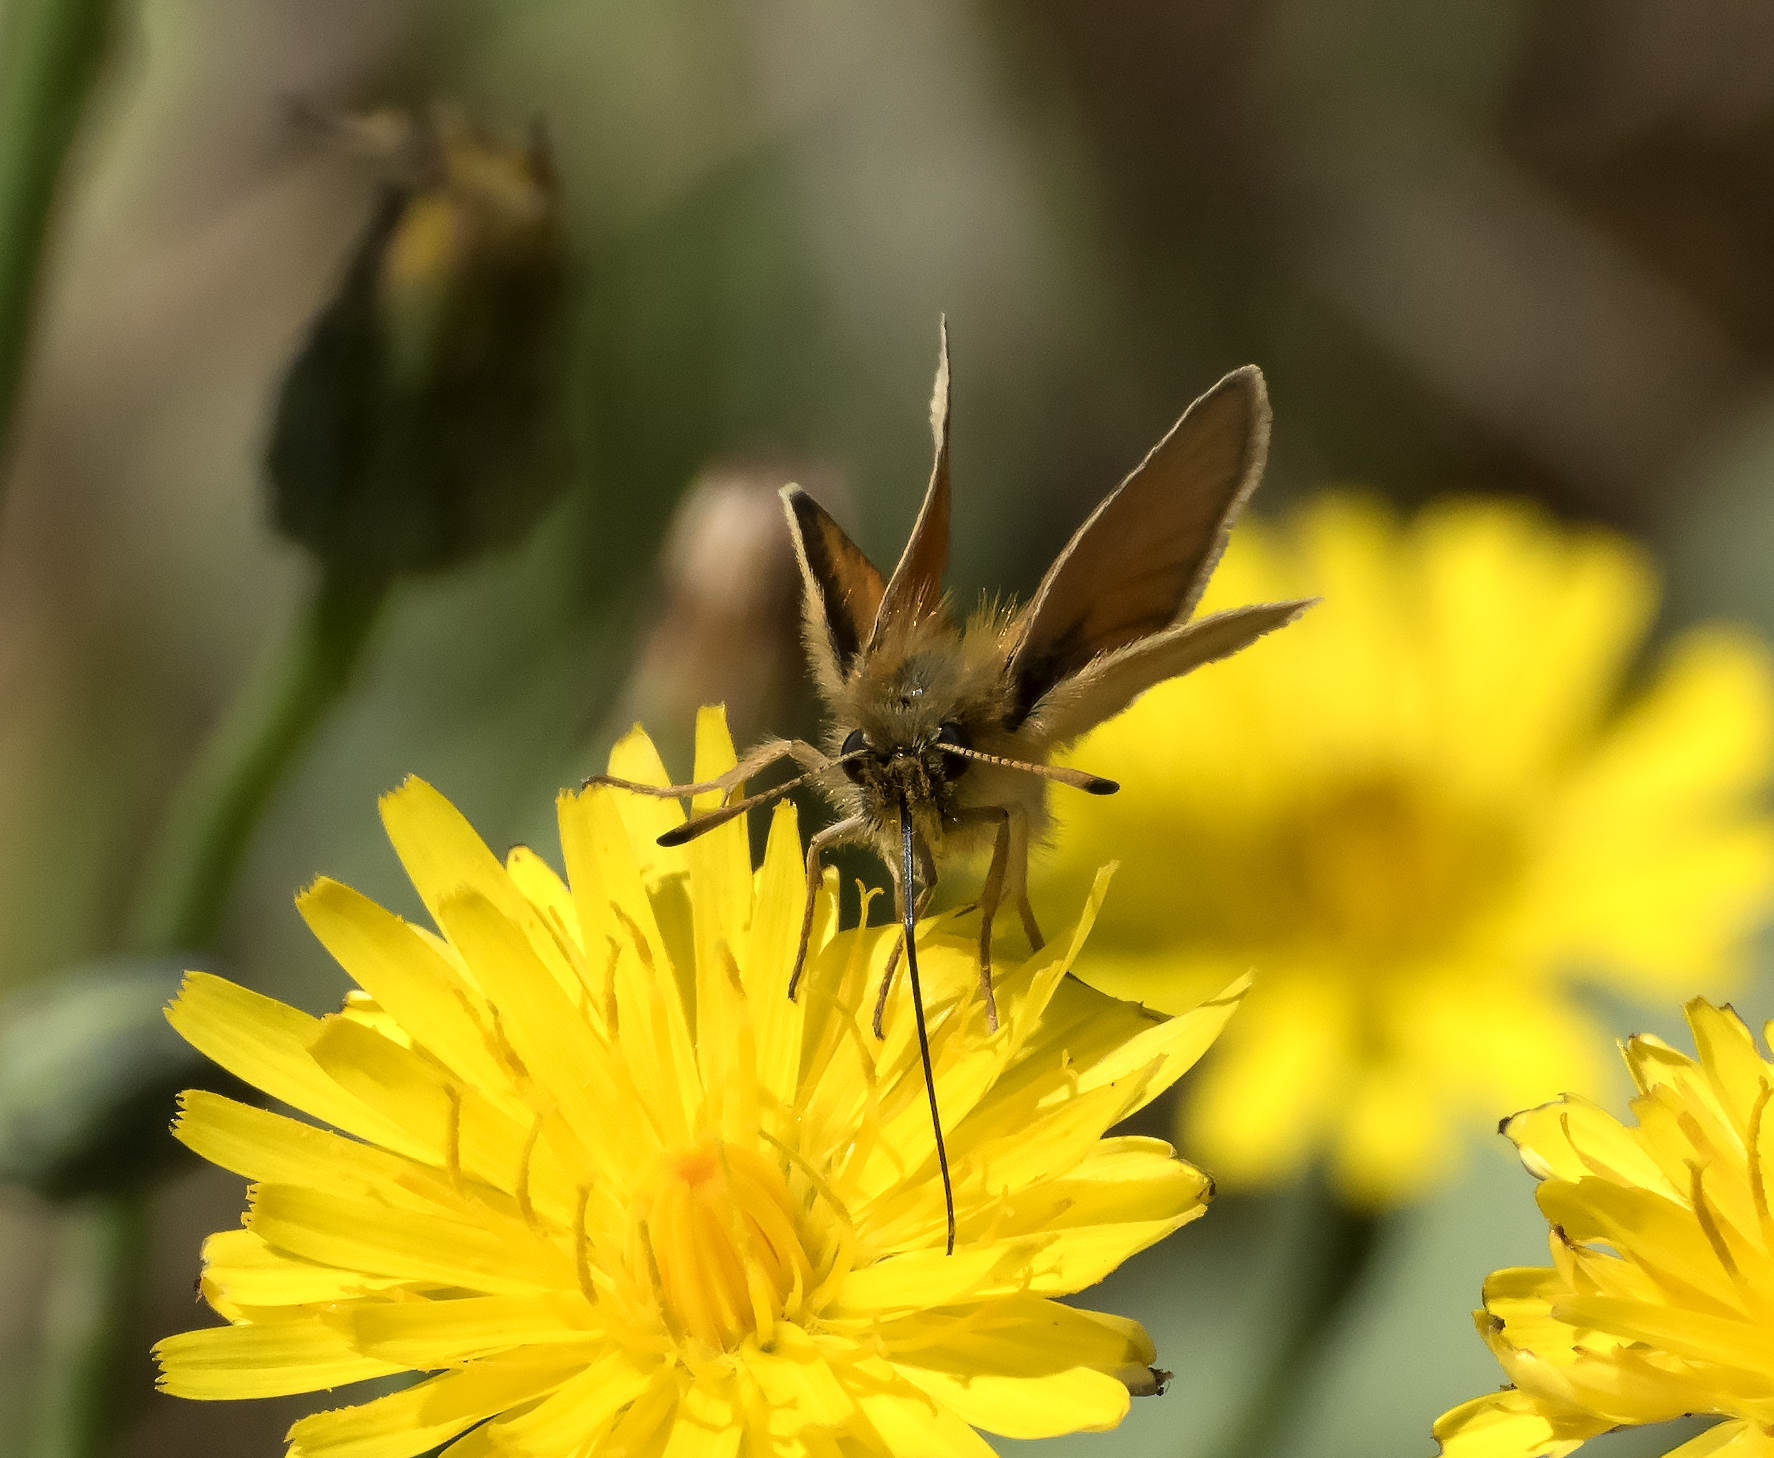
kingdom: Animalia
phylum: Arthropoda
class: Insecta
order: Lepidoptera
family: Hesperiidae
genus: Thymelicus
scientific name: Thymelicus lineola
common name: Essex skipper
